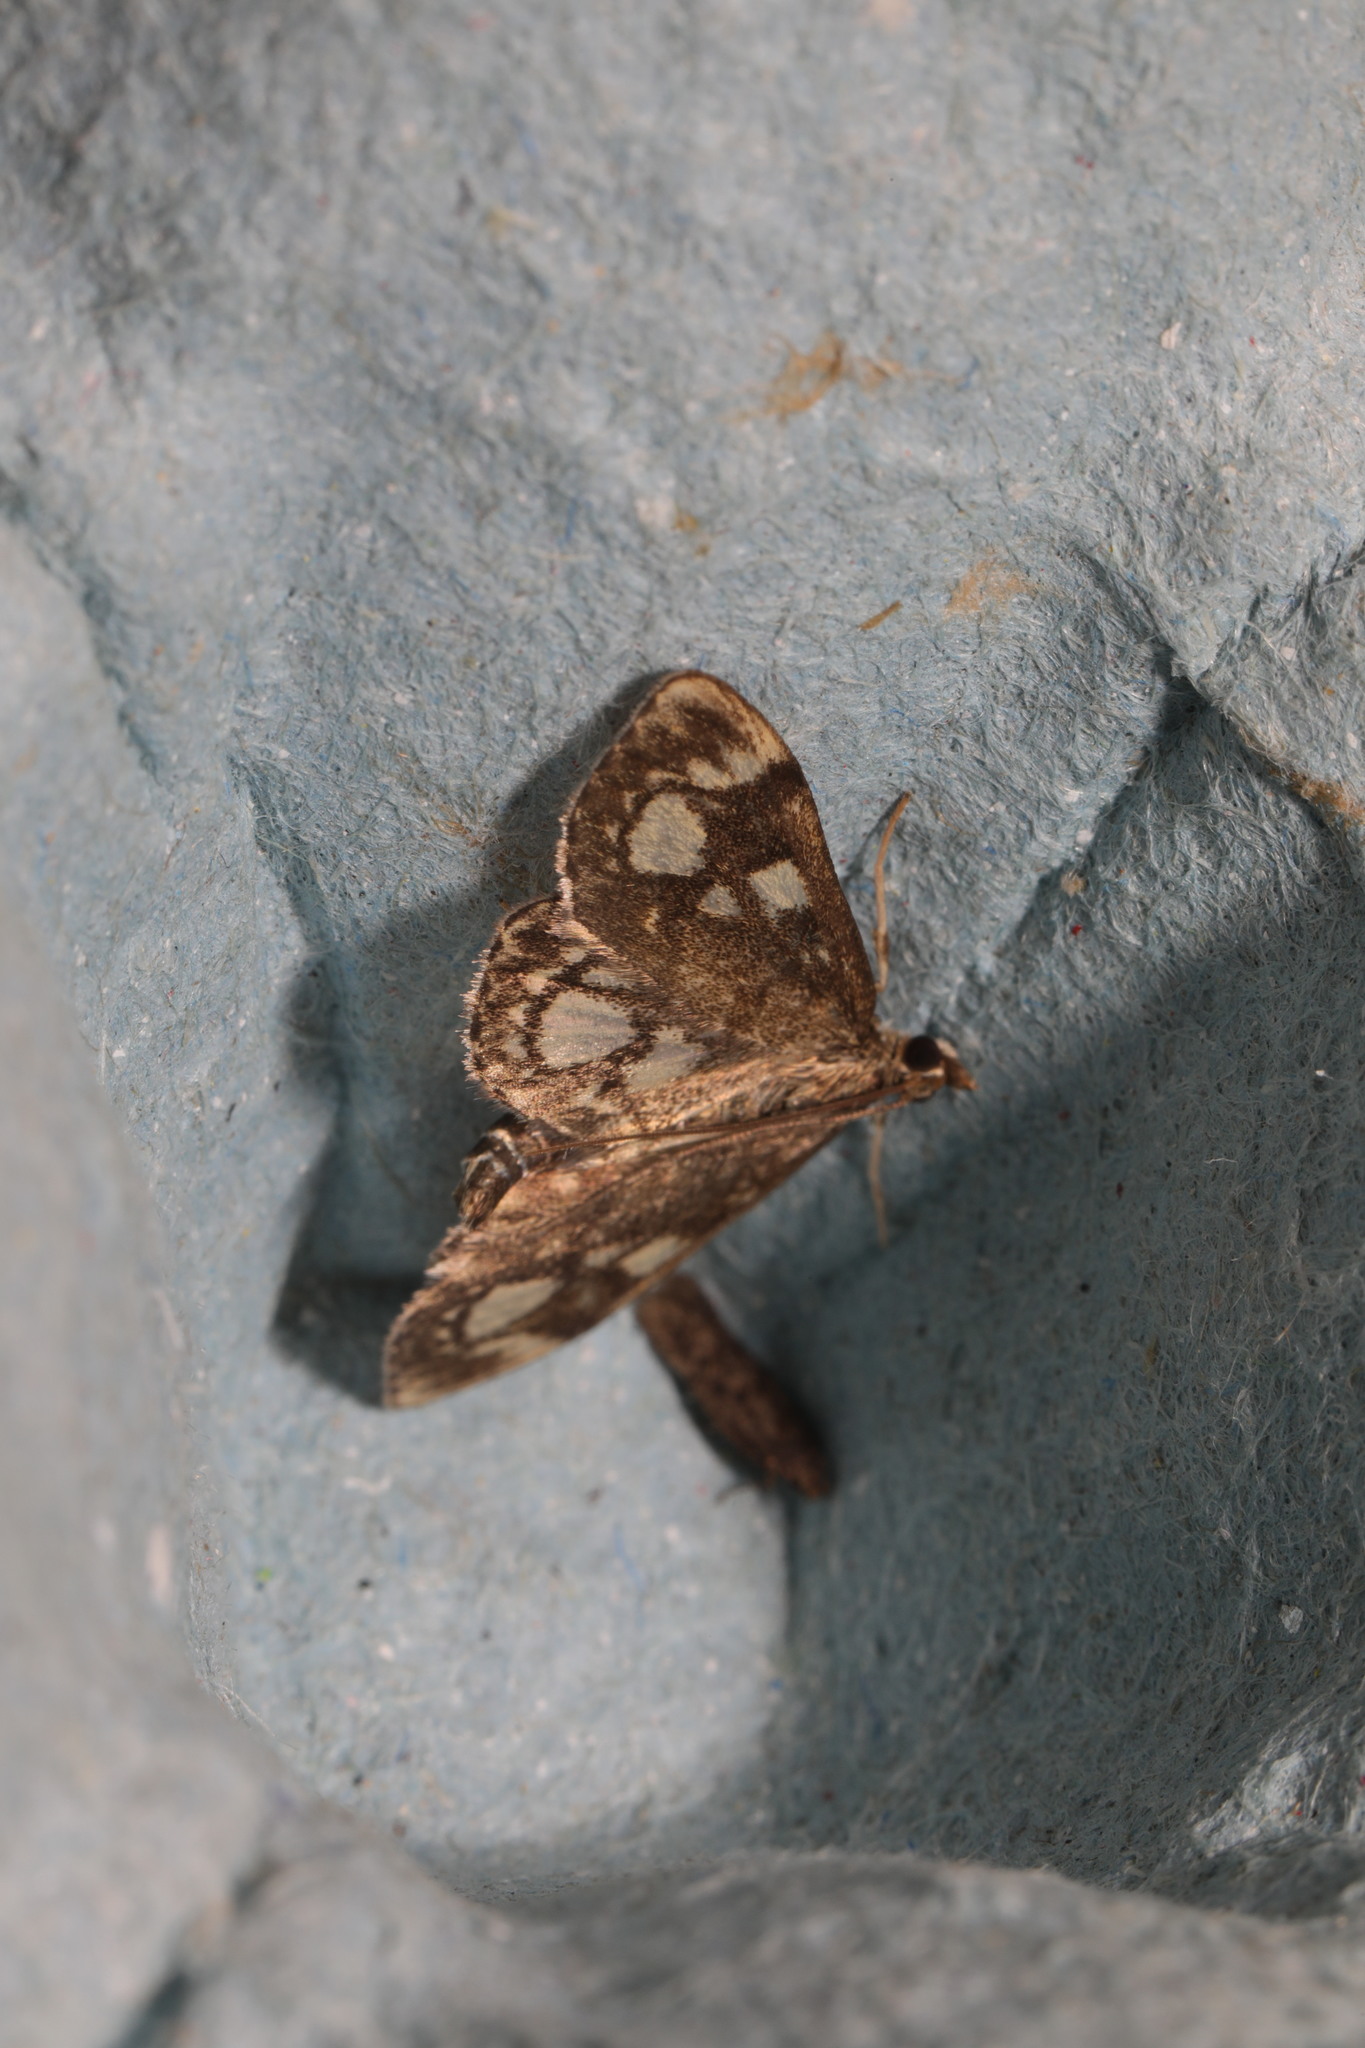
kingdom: Animalia
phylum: Arthropoda
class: Insecta
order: Lepidoptera
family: Crambidae
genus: Anania
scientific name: Anania coronata
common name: Elder pearl
